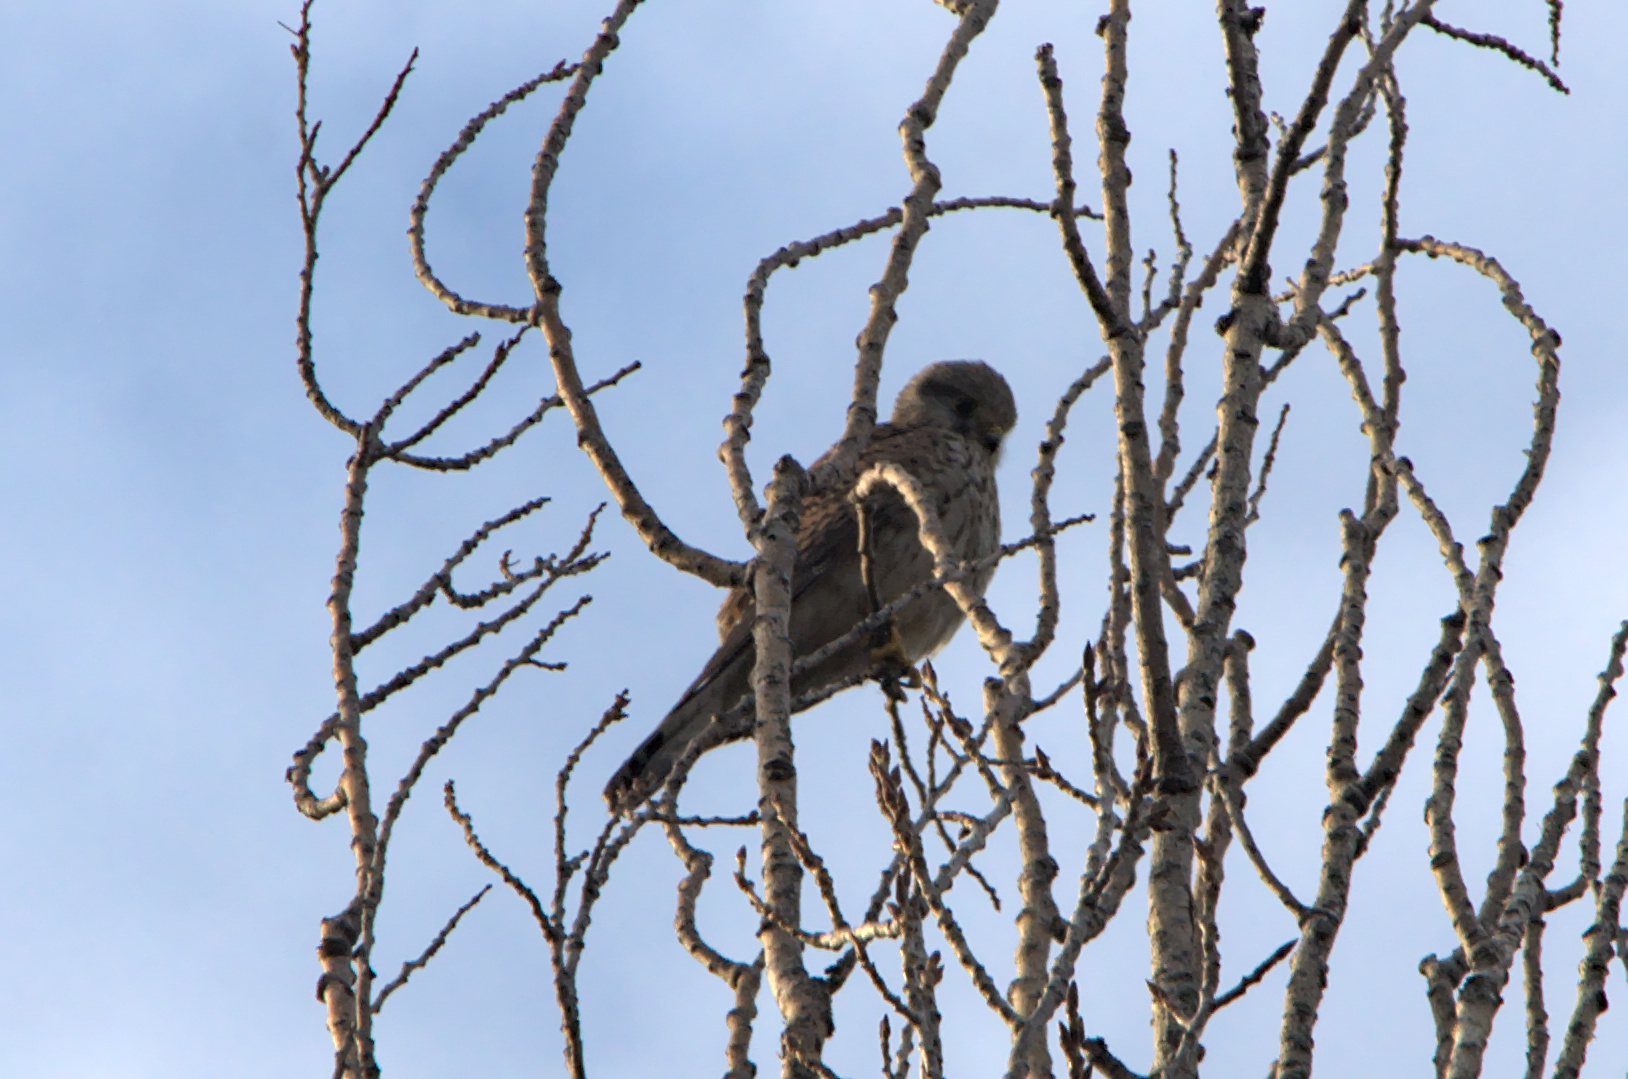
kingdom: Animalia
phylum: Chordata
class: Aves
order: Falconiformes
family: Falconidae
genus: Falco
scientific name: Falco tinnunculus
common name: Common kestrel
